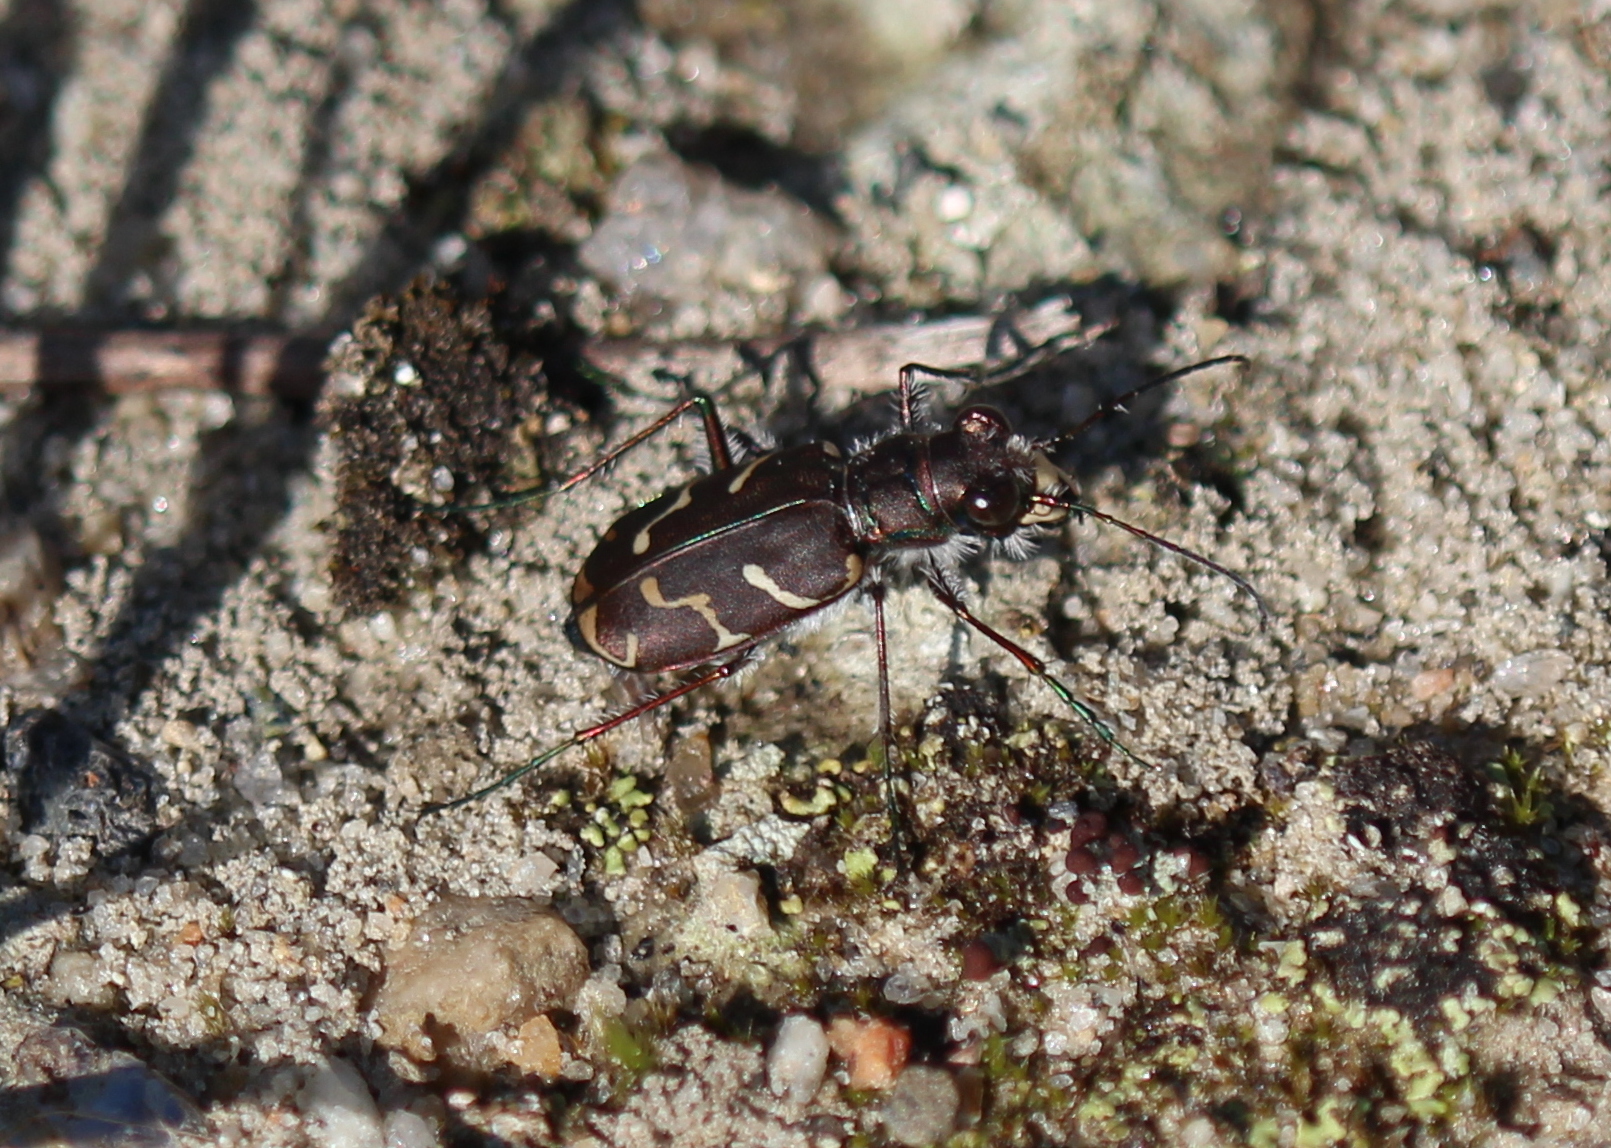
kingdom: Animalia
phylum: Arthropoda
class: Insecta
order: Coleoptera
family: Carabidae
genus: Cicindela
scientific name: Cicindela tranquebarica
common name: Oblique-lined tiger beetle
